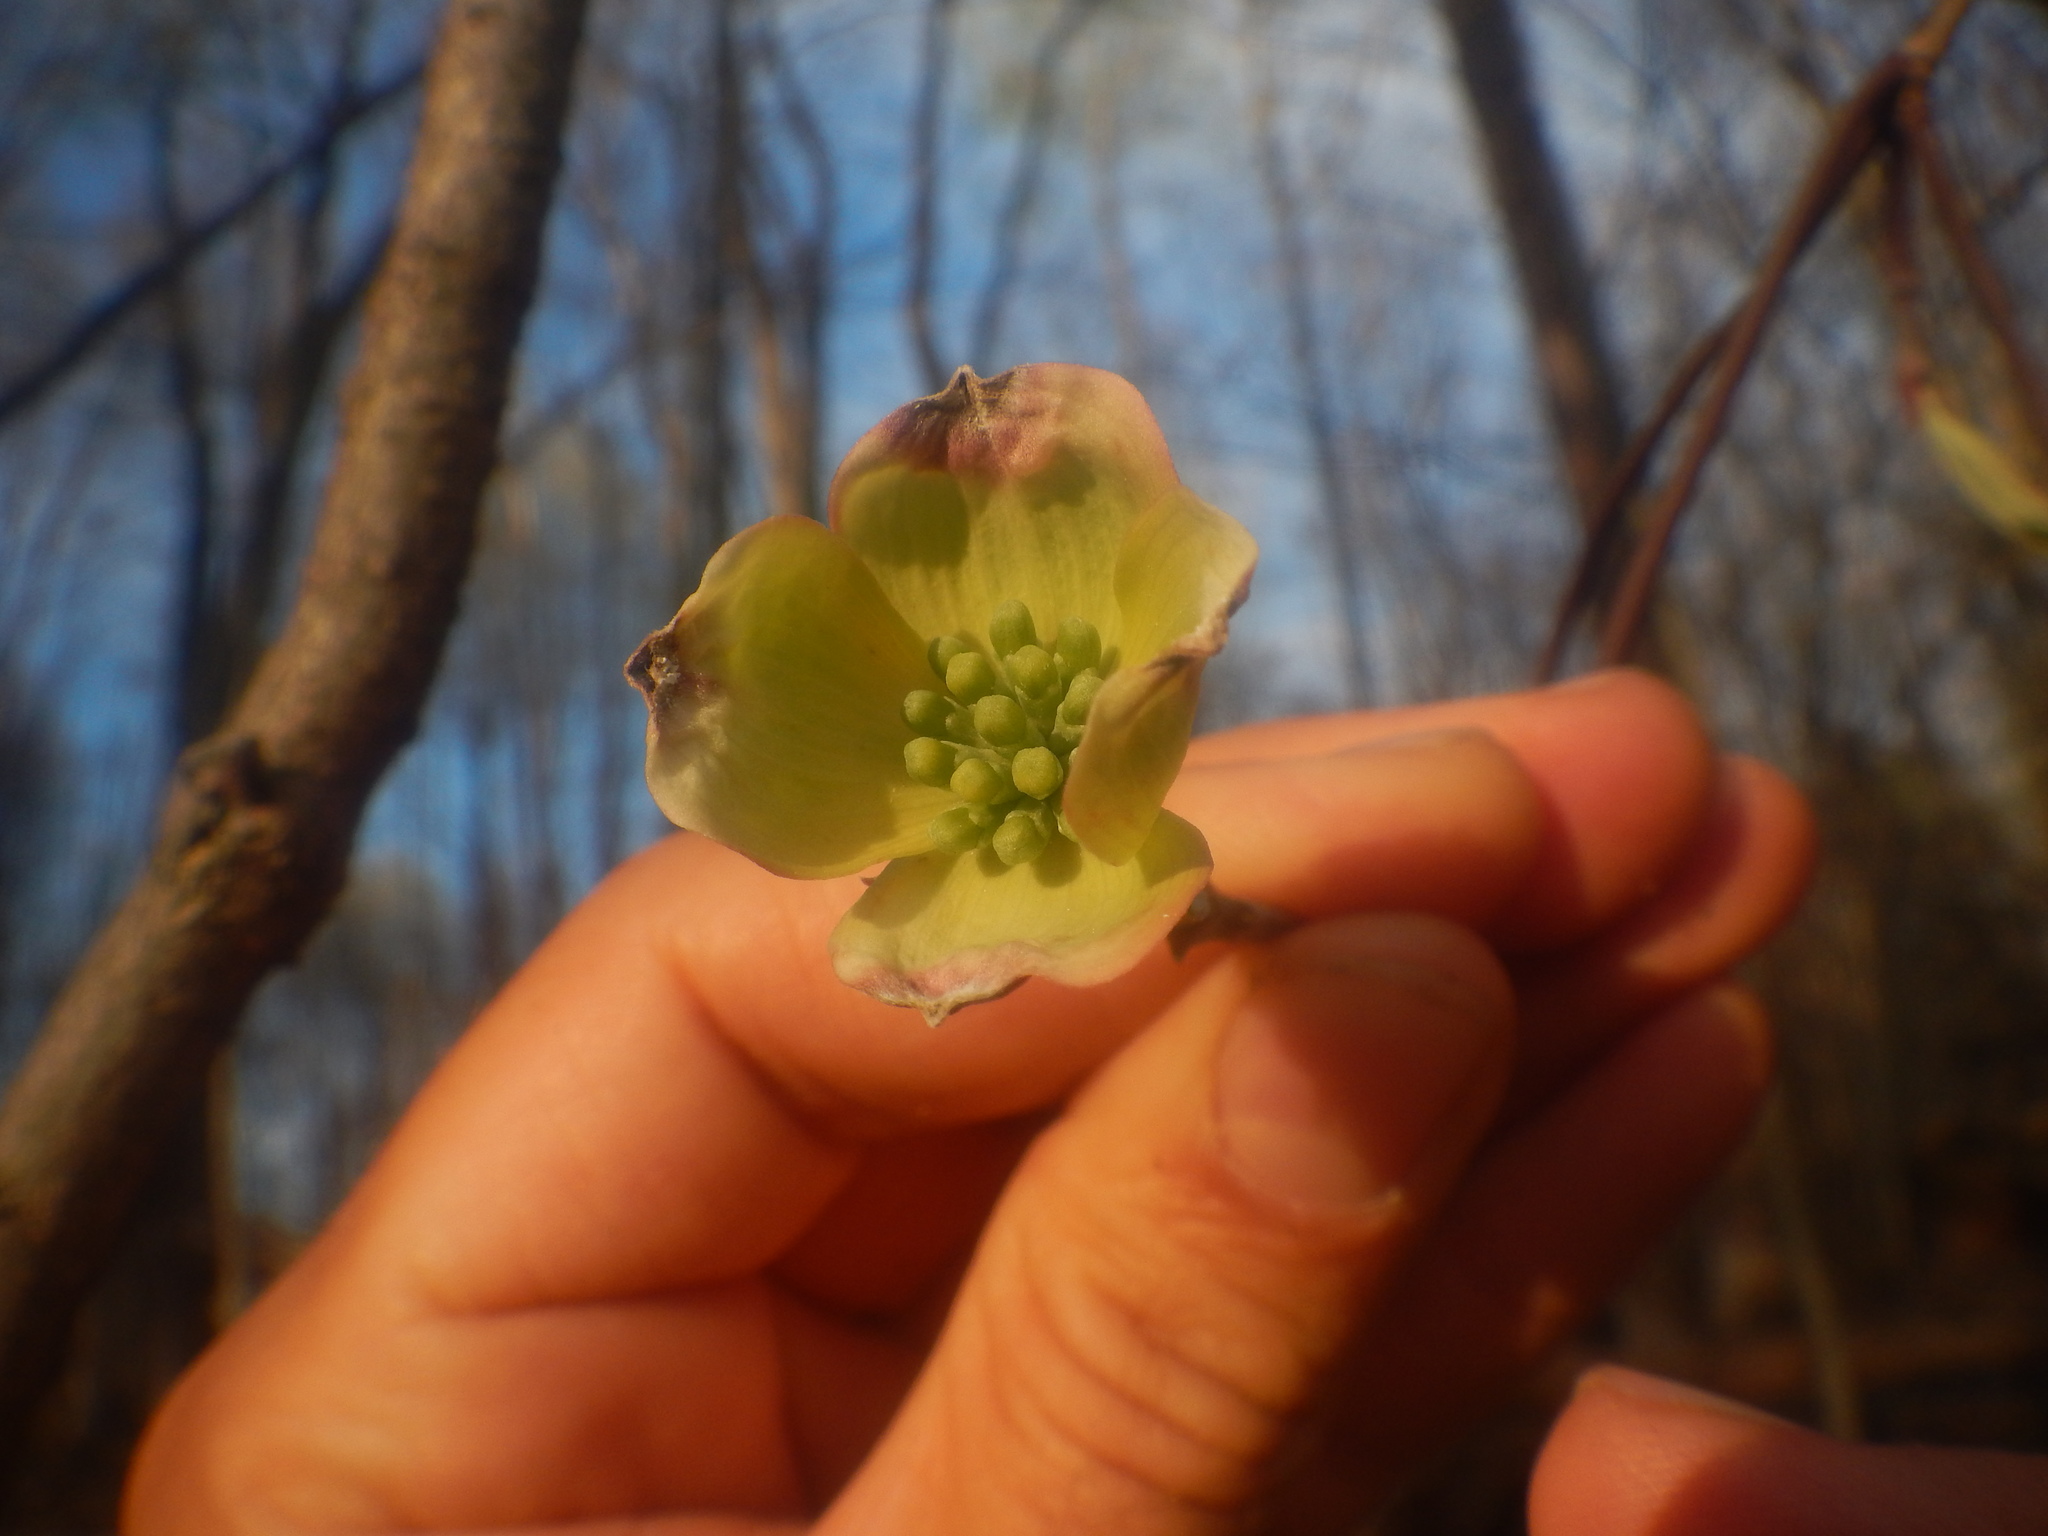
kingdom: Plantae
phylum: Tracheophyta
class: Magnoliopsida
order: Cornales
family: Cornaceae
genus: Cornus
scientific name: Cornus florida
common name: Flowering dogwood
